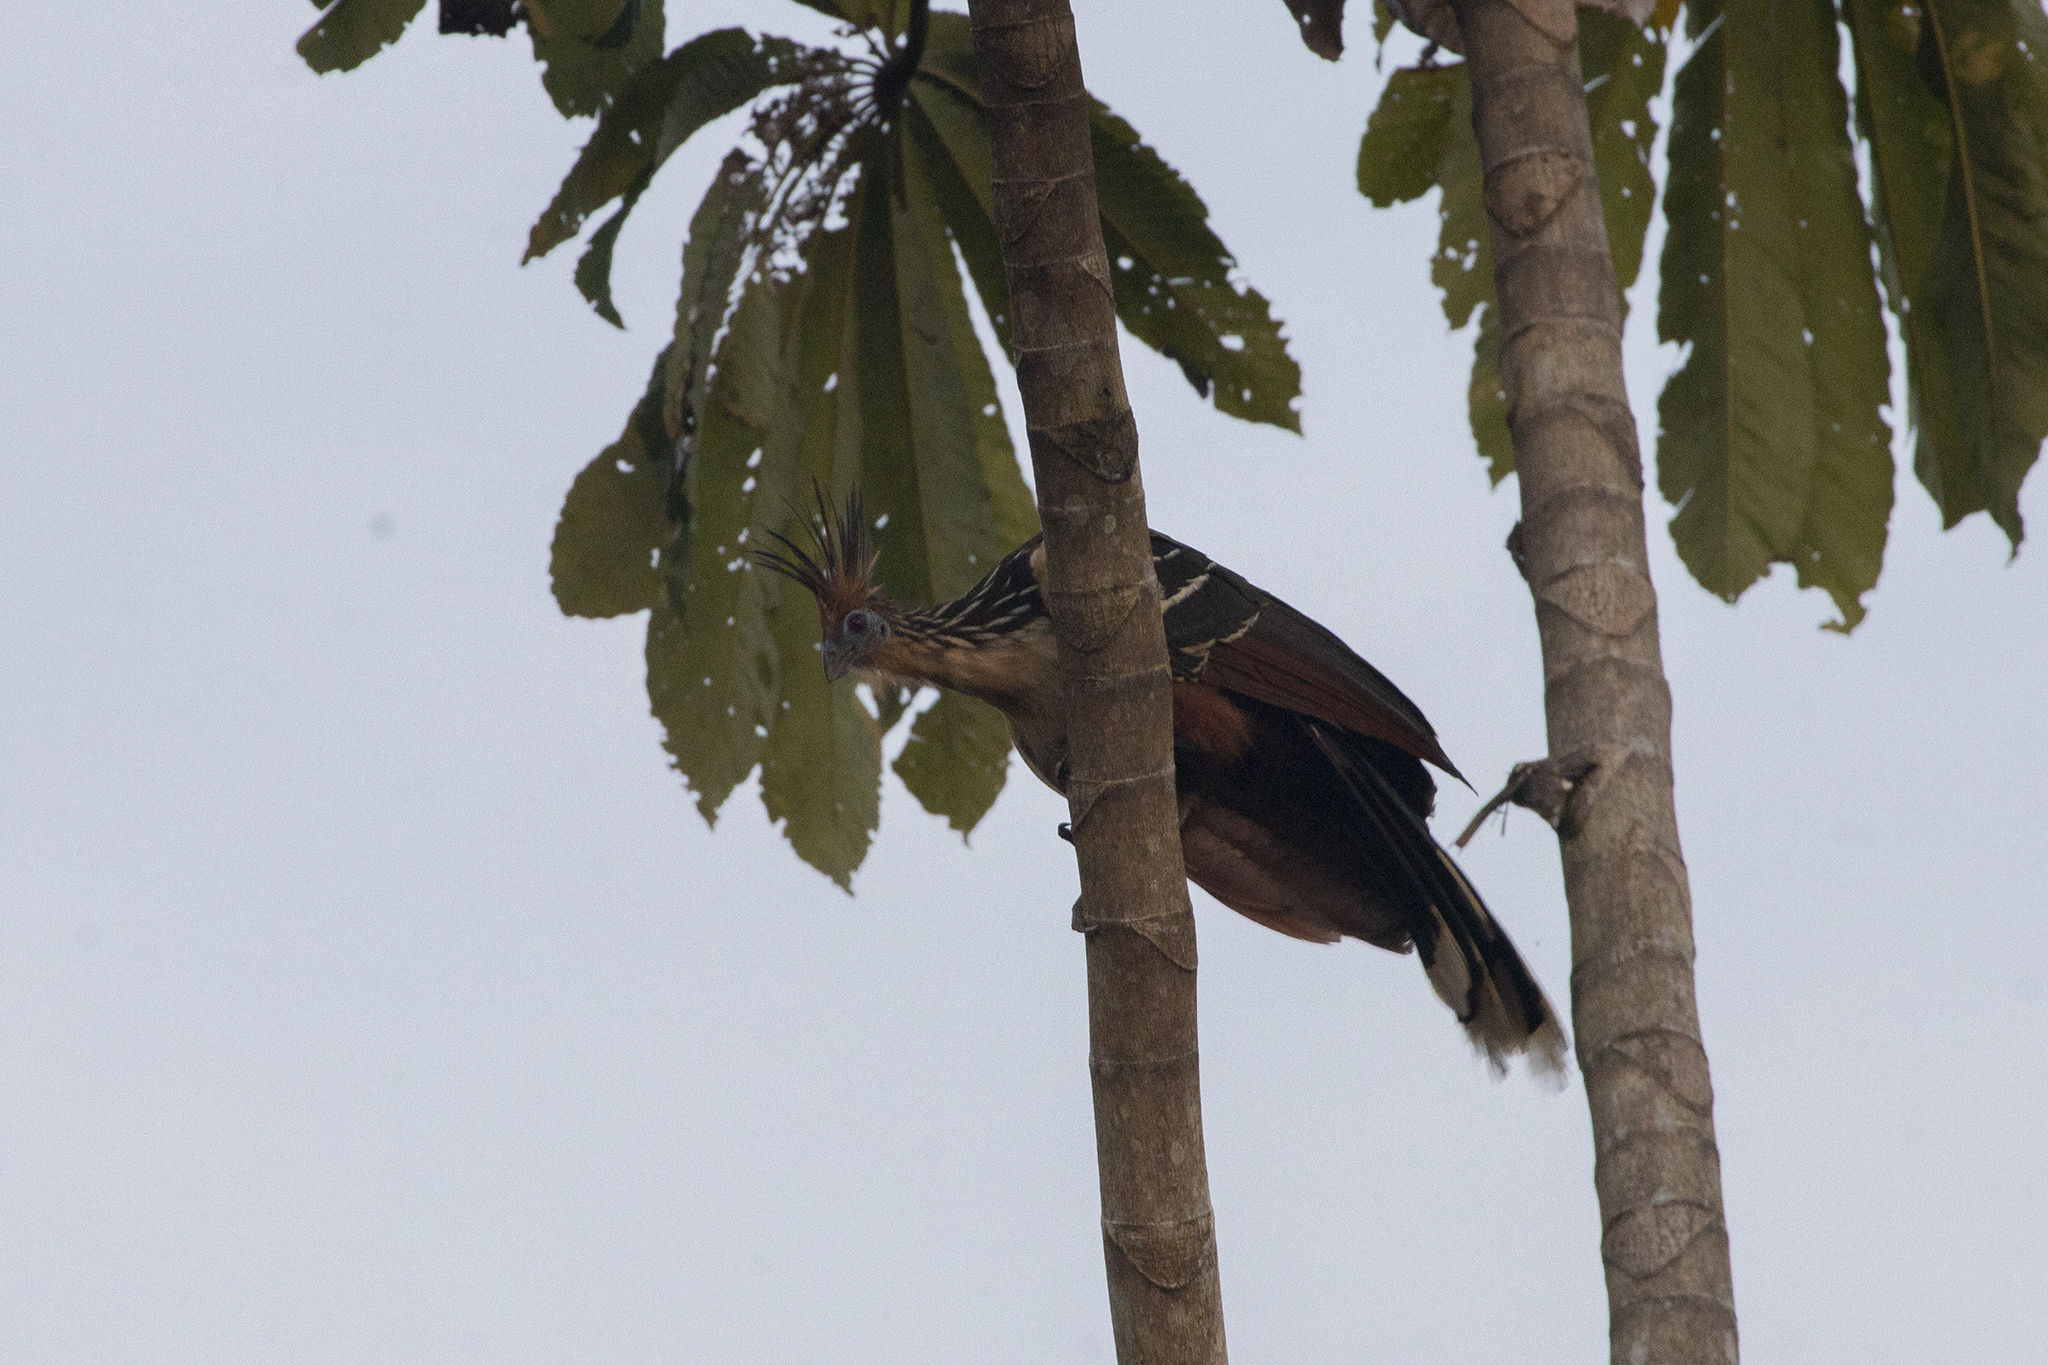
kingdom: Animalia
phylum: Chordata
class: Aves
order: Opisthocomiformes
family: Opisthocomidae
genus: Opisthocomus
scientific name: Opisthocomus hoazin
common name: Hoatzin
